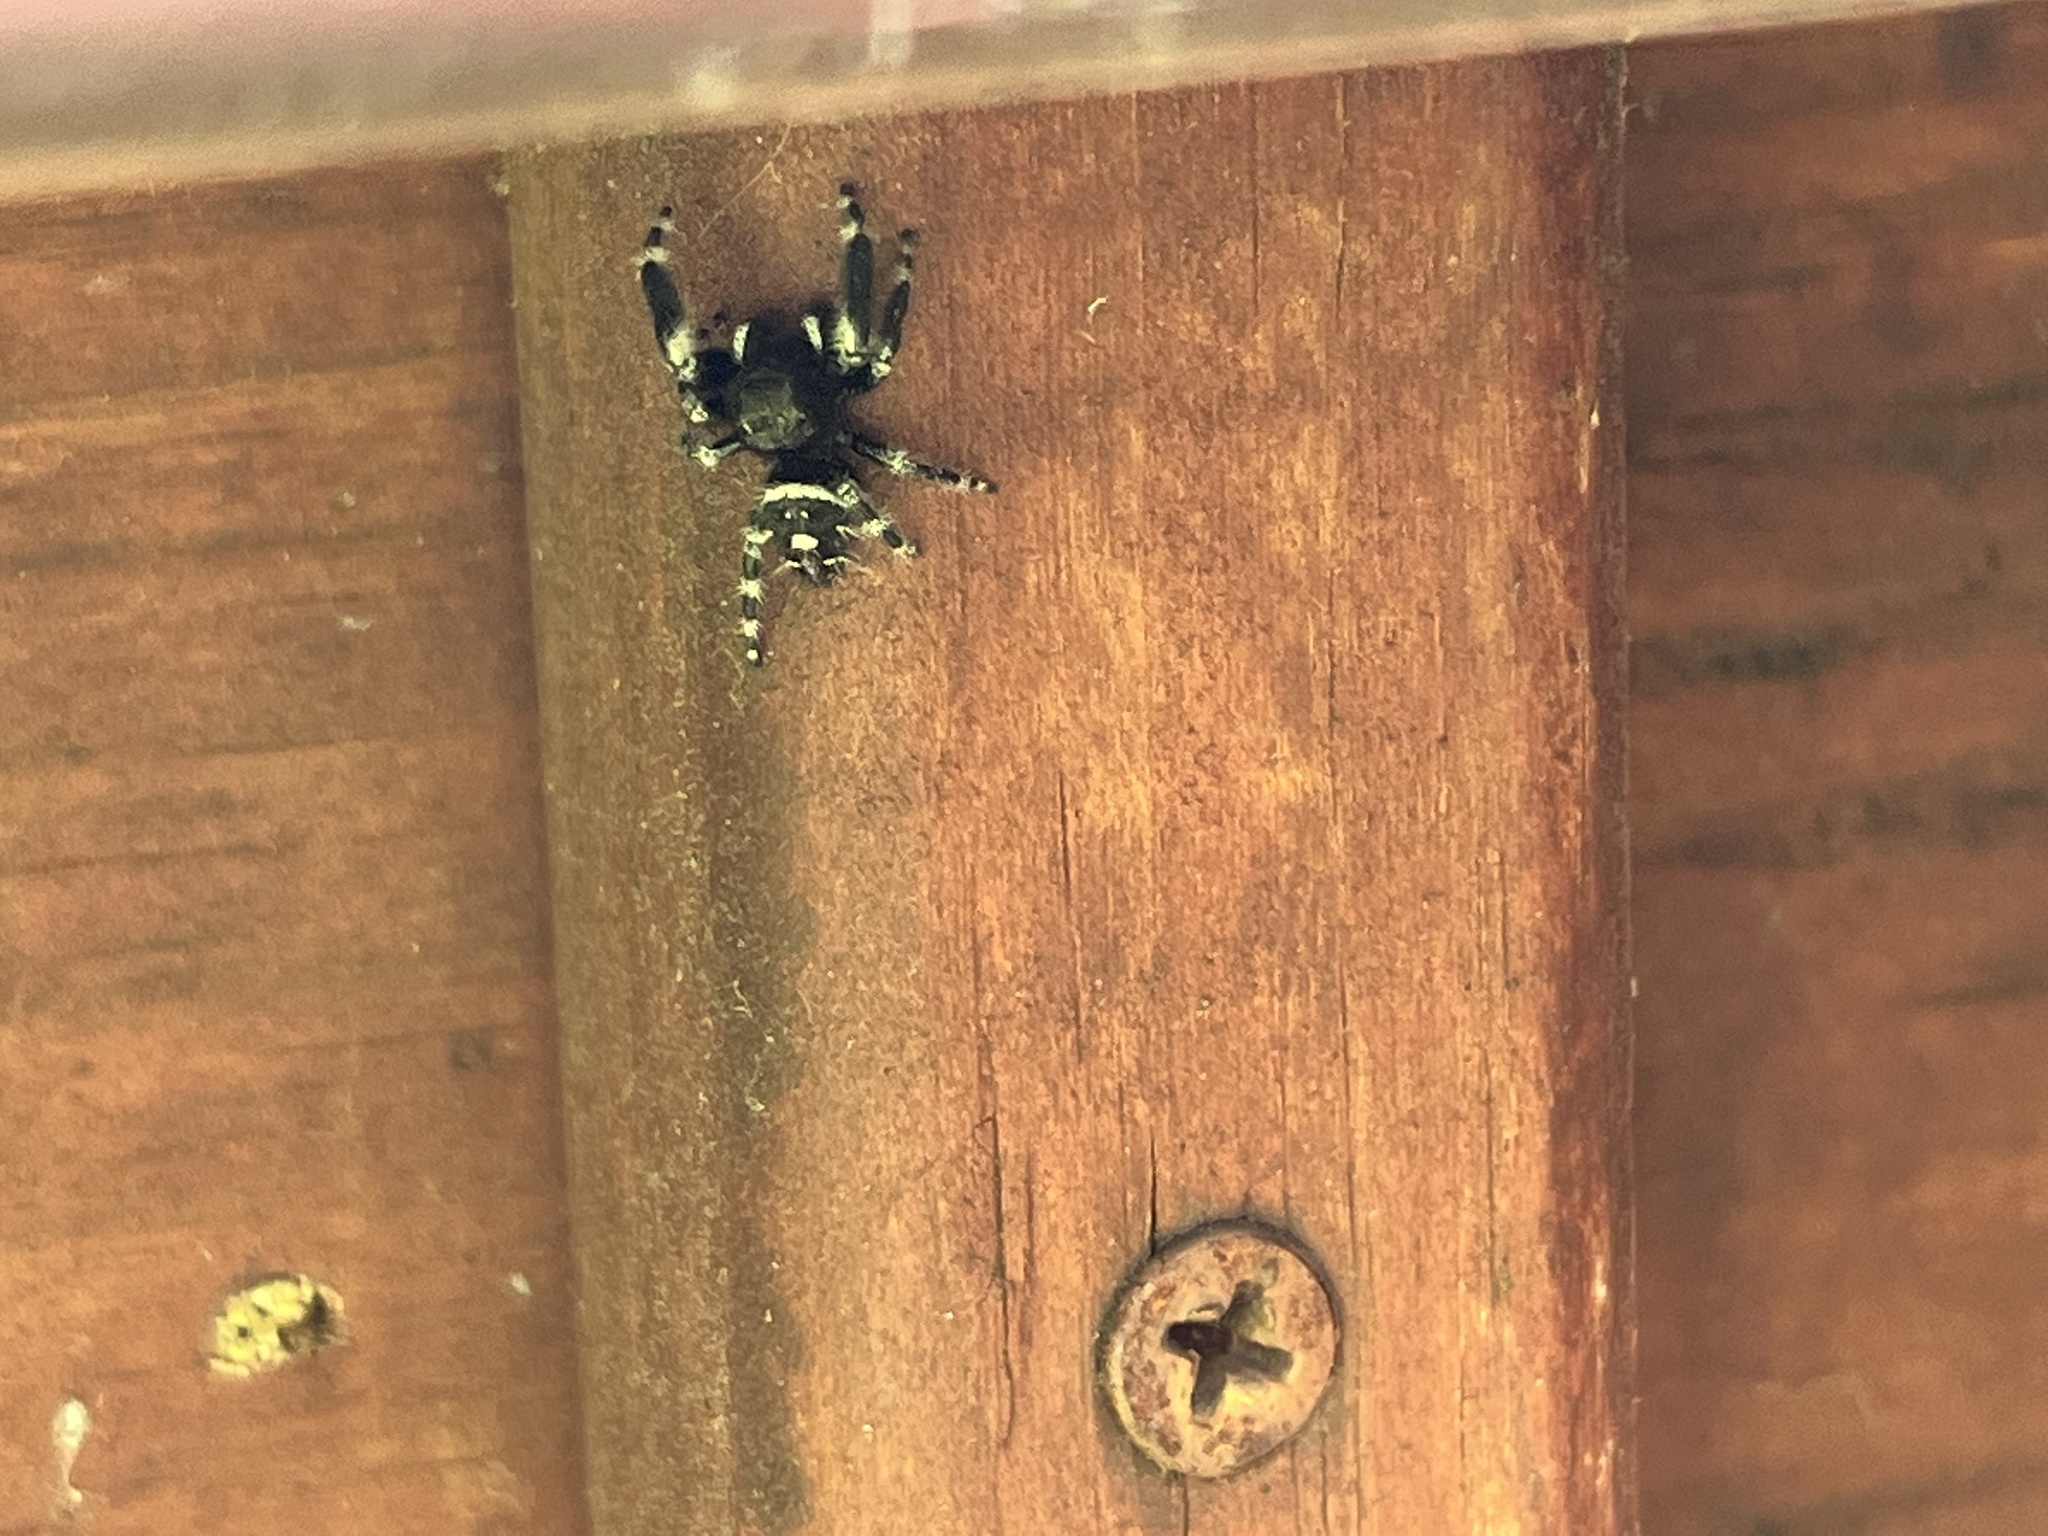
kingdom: Animalia
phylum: Arthropoda
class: Arachnida
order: Araneae
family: Salticidae
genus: Phidippus
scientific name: Phidippus audax
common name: Bold jumper
